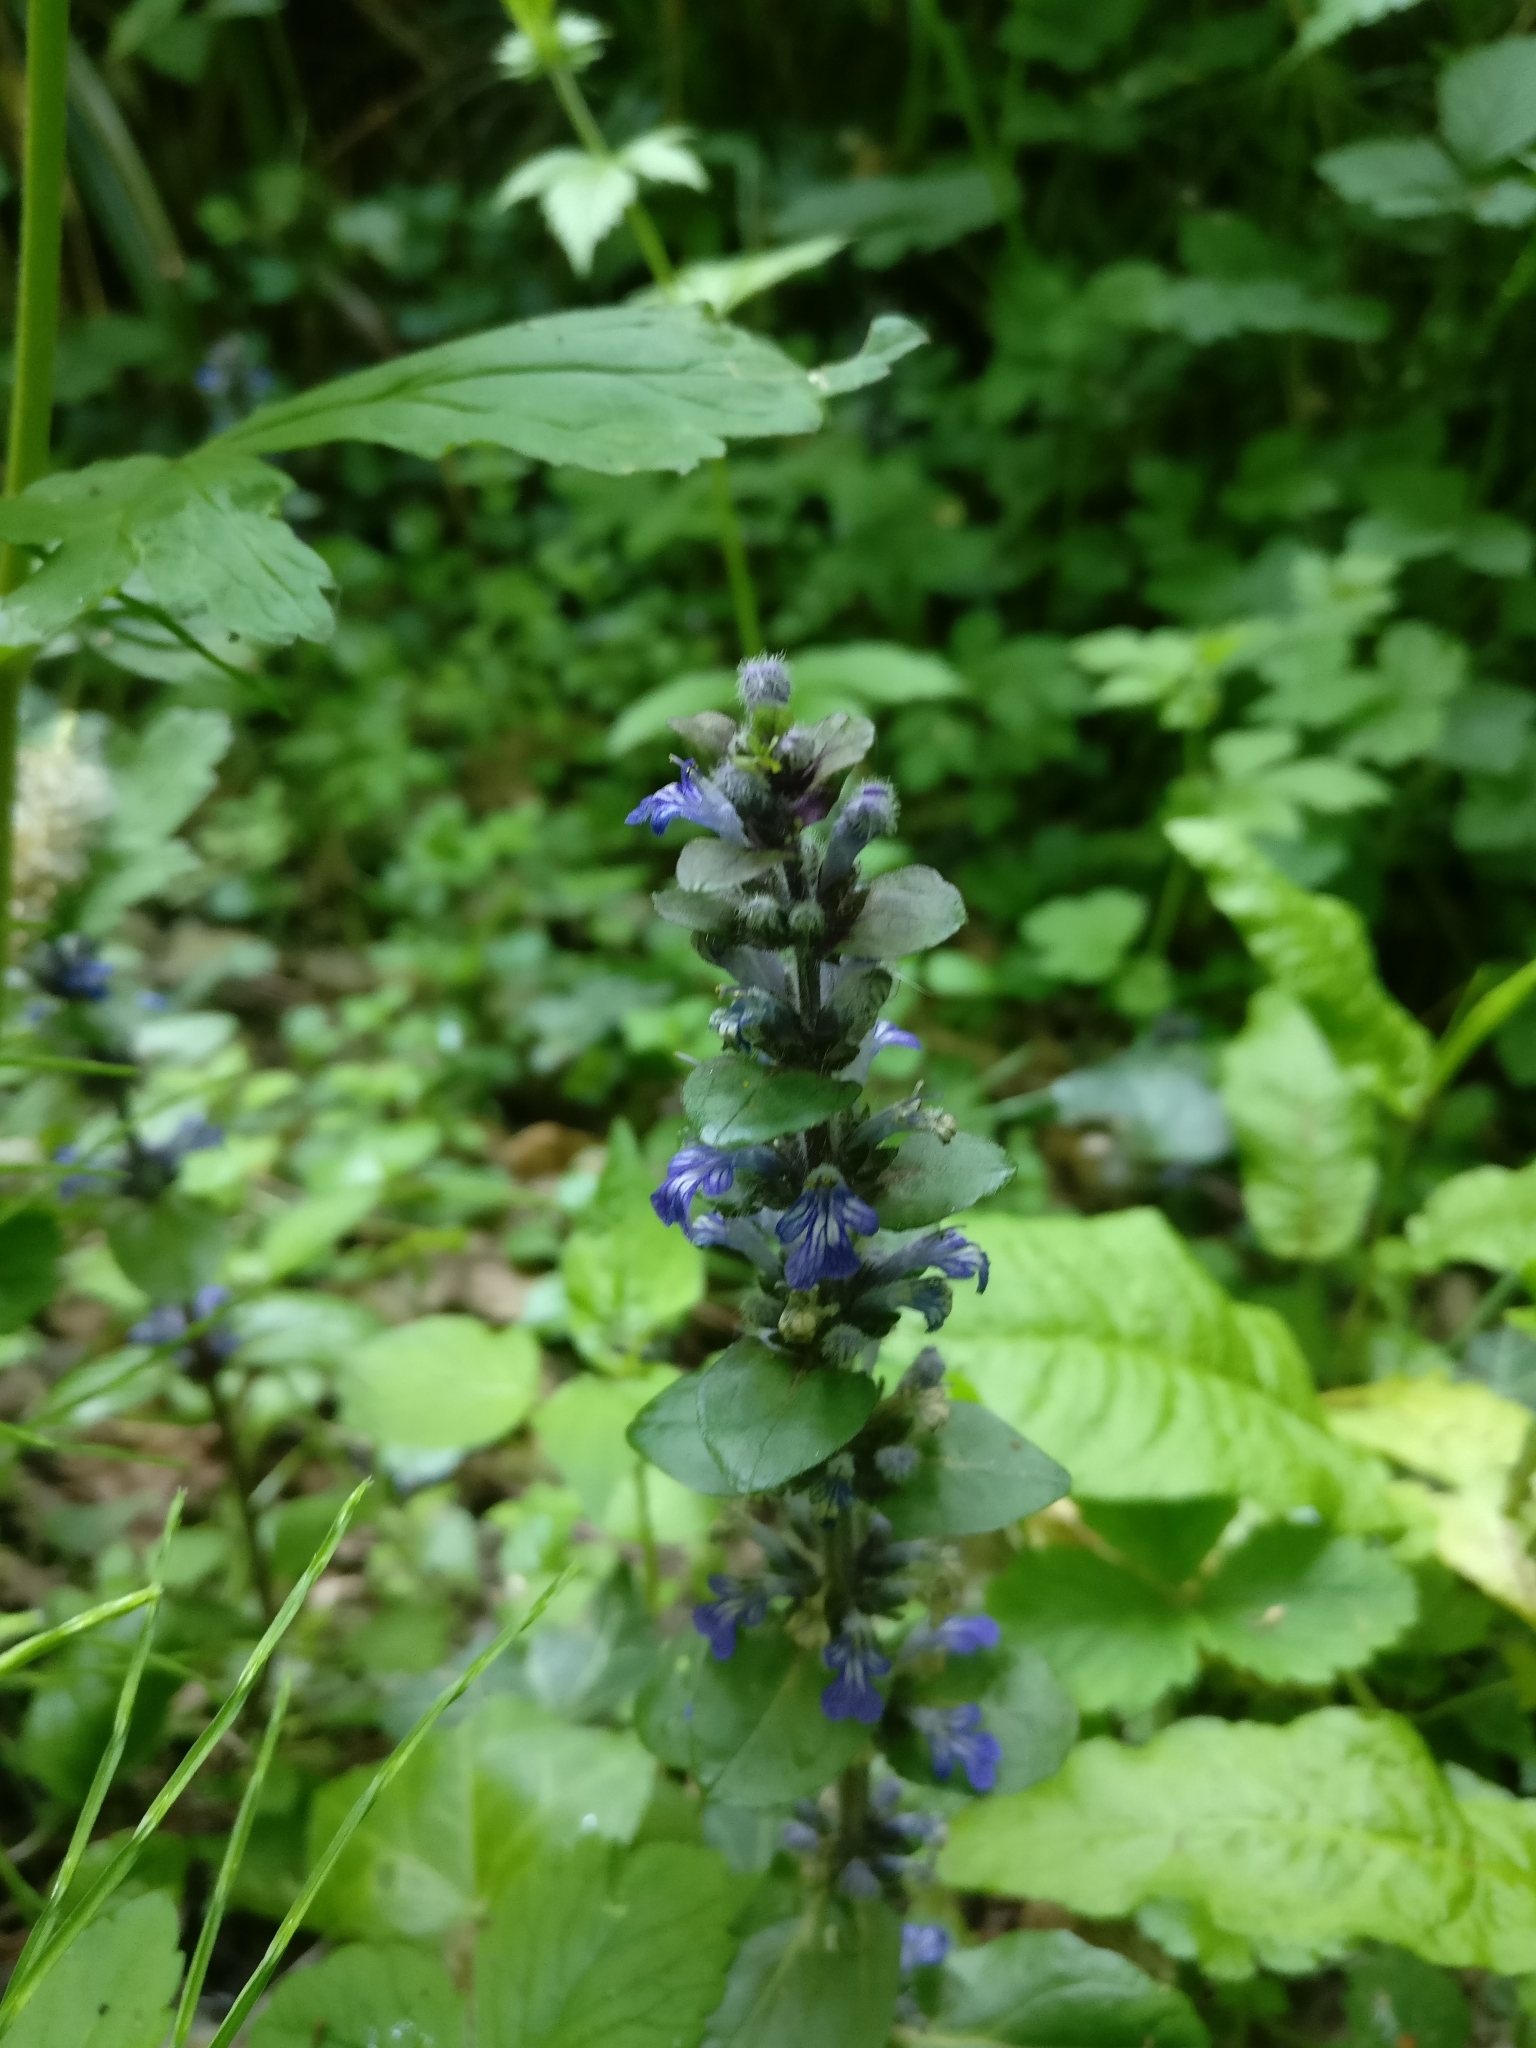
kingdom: Plantae
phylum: Tracheophyta
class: Magnoliopsida
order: Lamiales
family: Lamiaceae
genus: Ajuga
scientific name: Ajuga reptans
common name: Bugle
